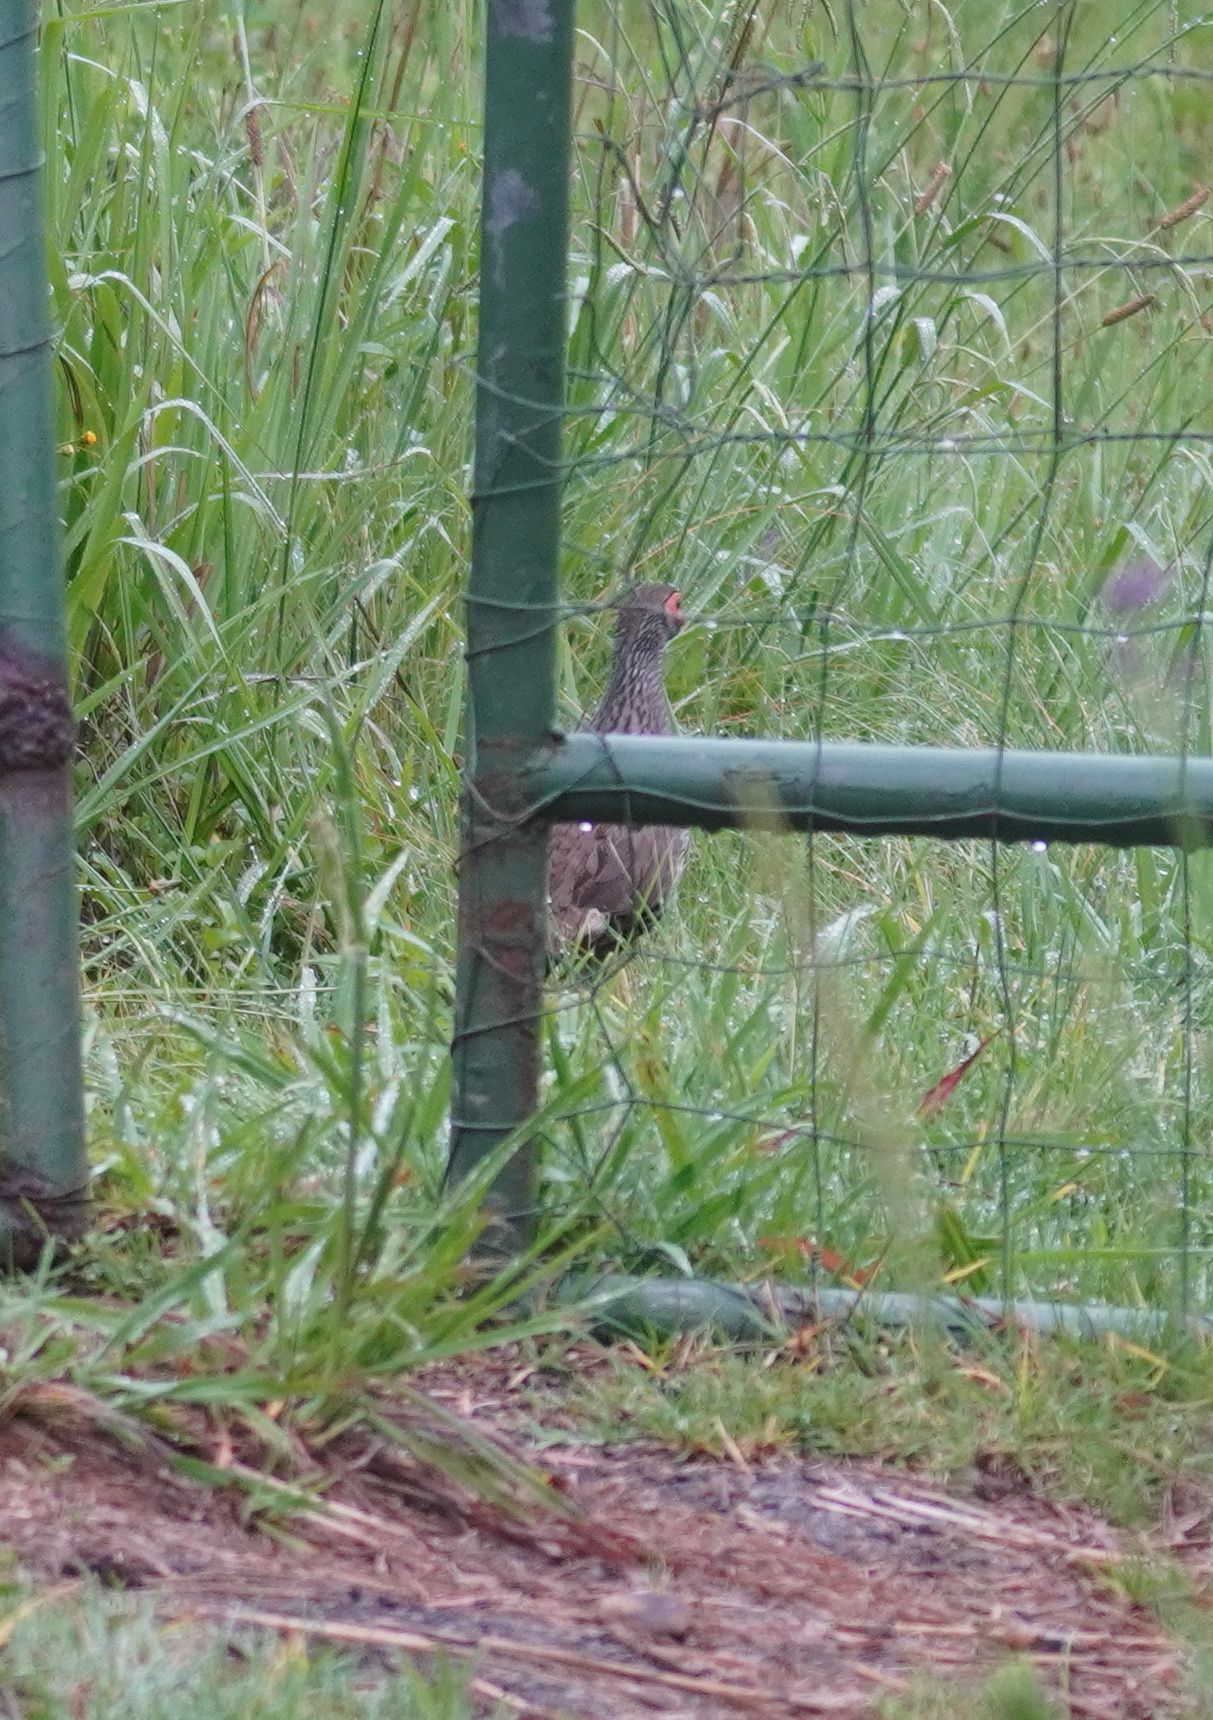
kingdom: Animalia
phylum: Chordata
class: Aves
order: Galliformes
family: Phasianidae
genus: Pternistis
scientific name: Pternistis afer
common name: Red-necked spurfowl
